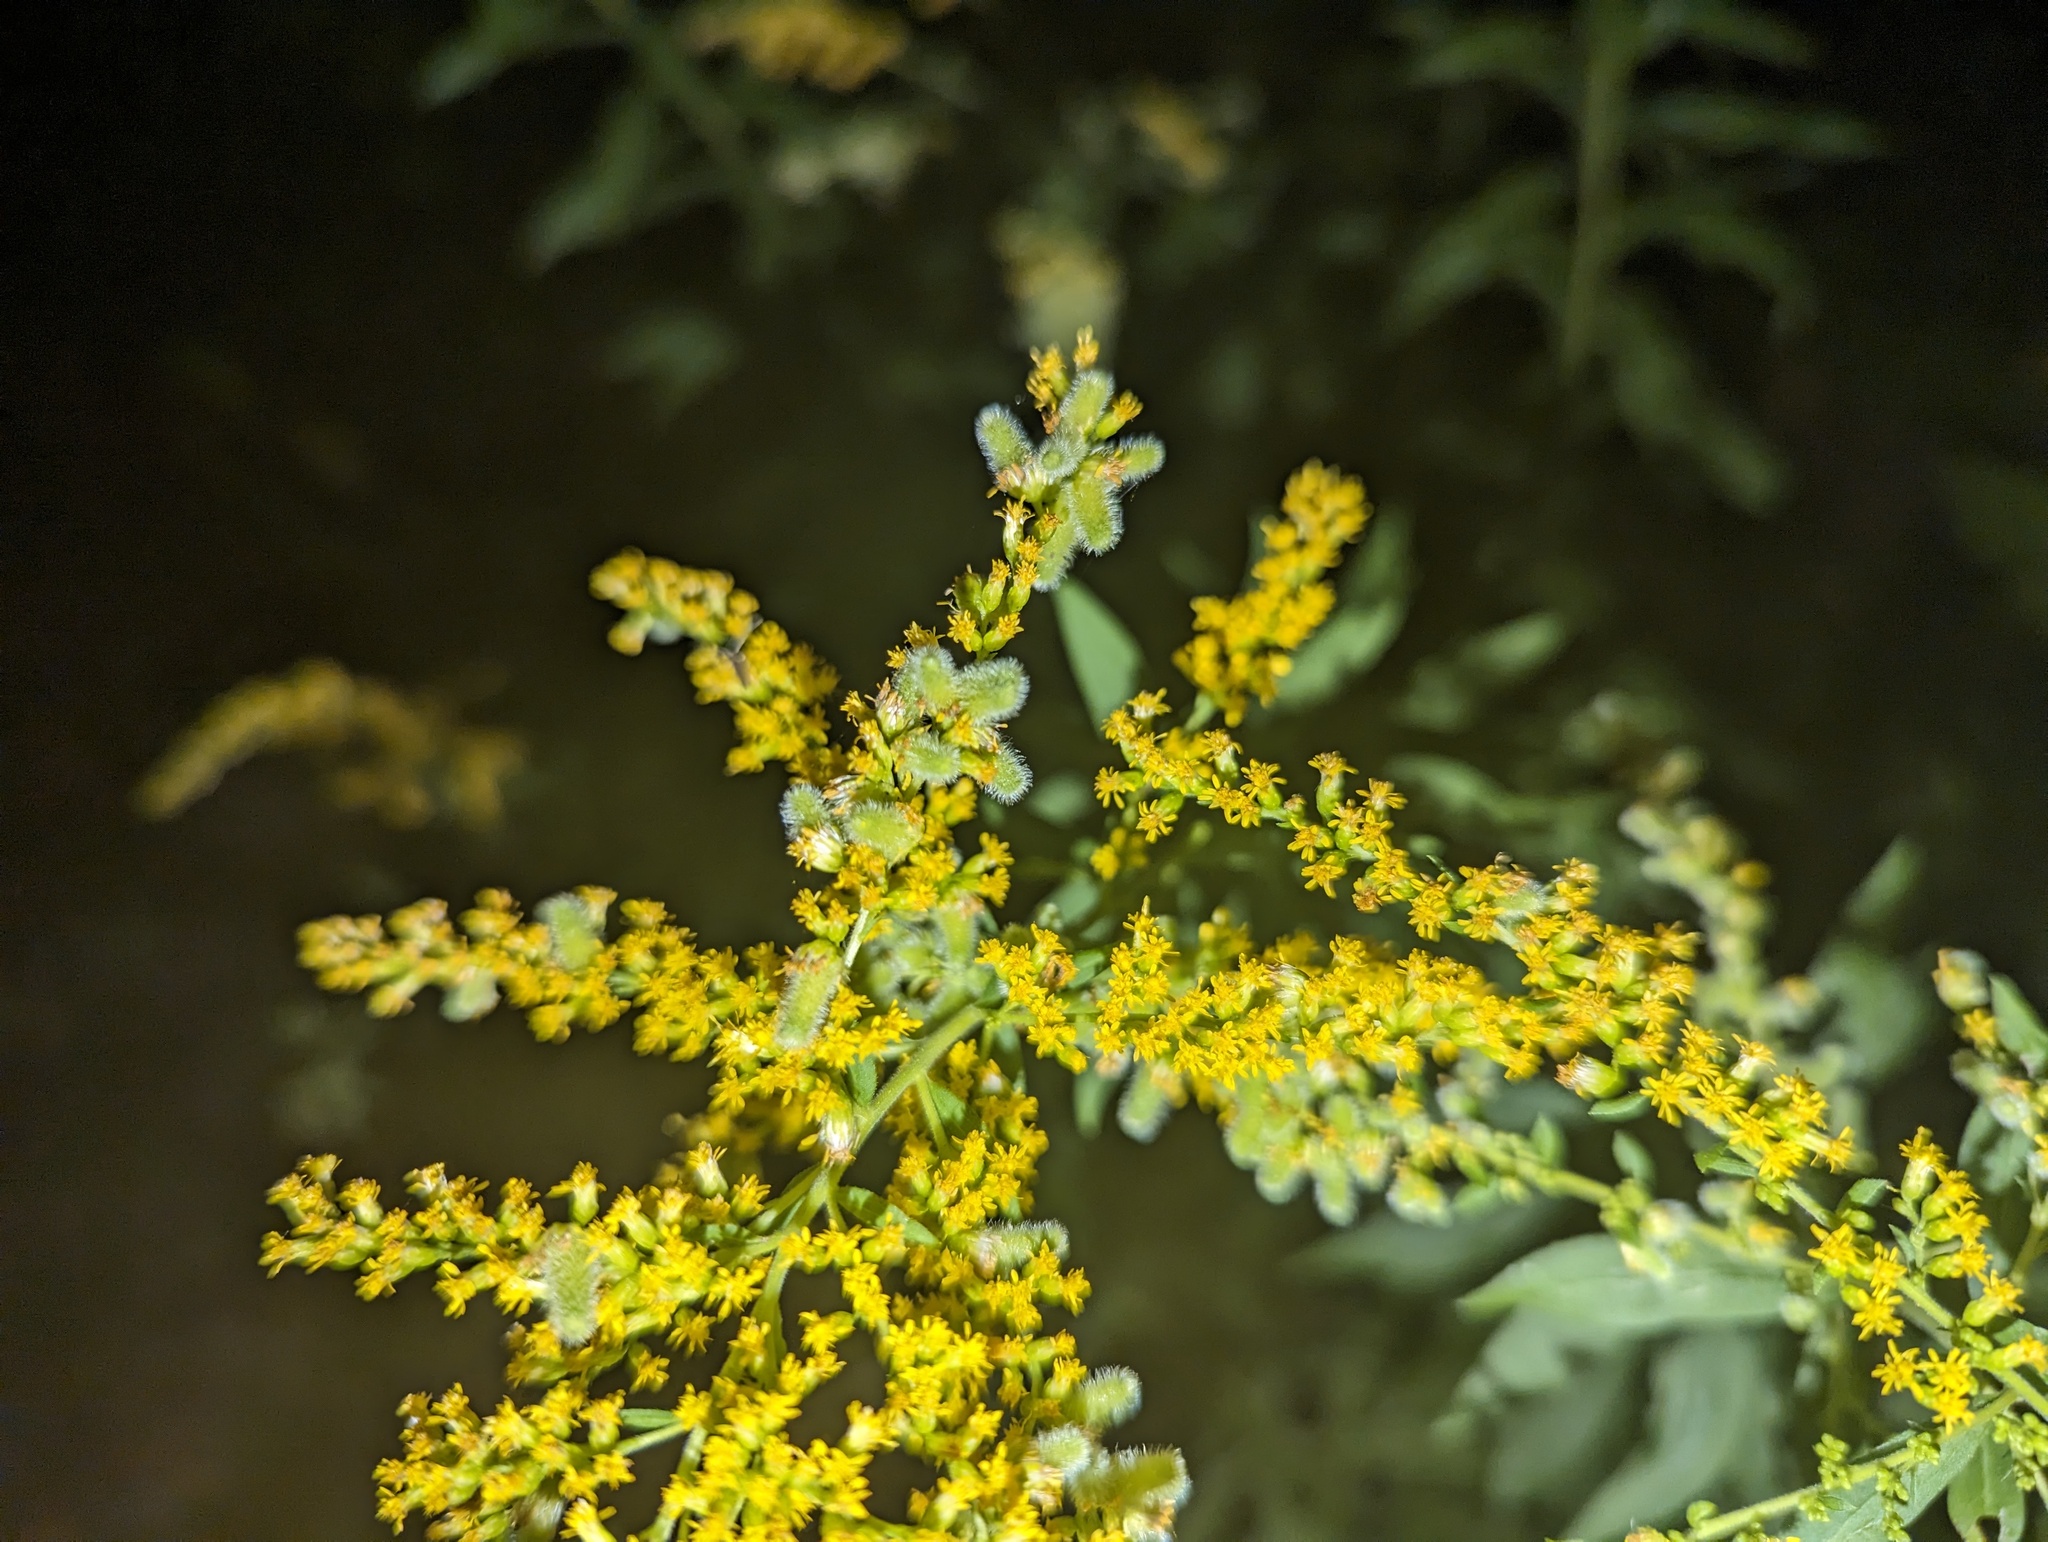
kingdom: Animalia
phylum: Arthropoda
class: Insecta
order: Diptera
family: Cecidomyiidae
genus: Rhopalomyia
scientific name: Rhopalomyia anthophila
